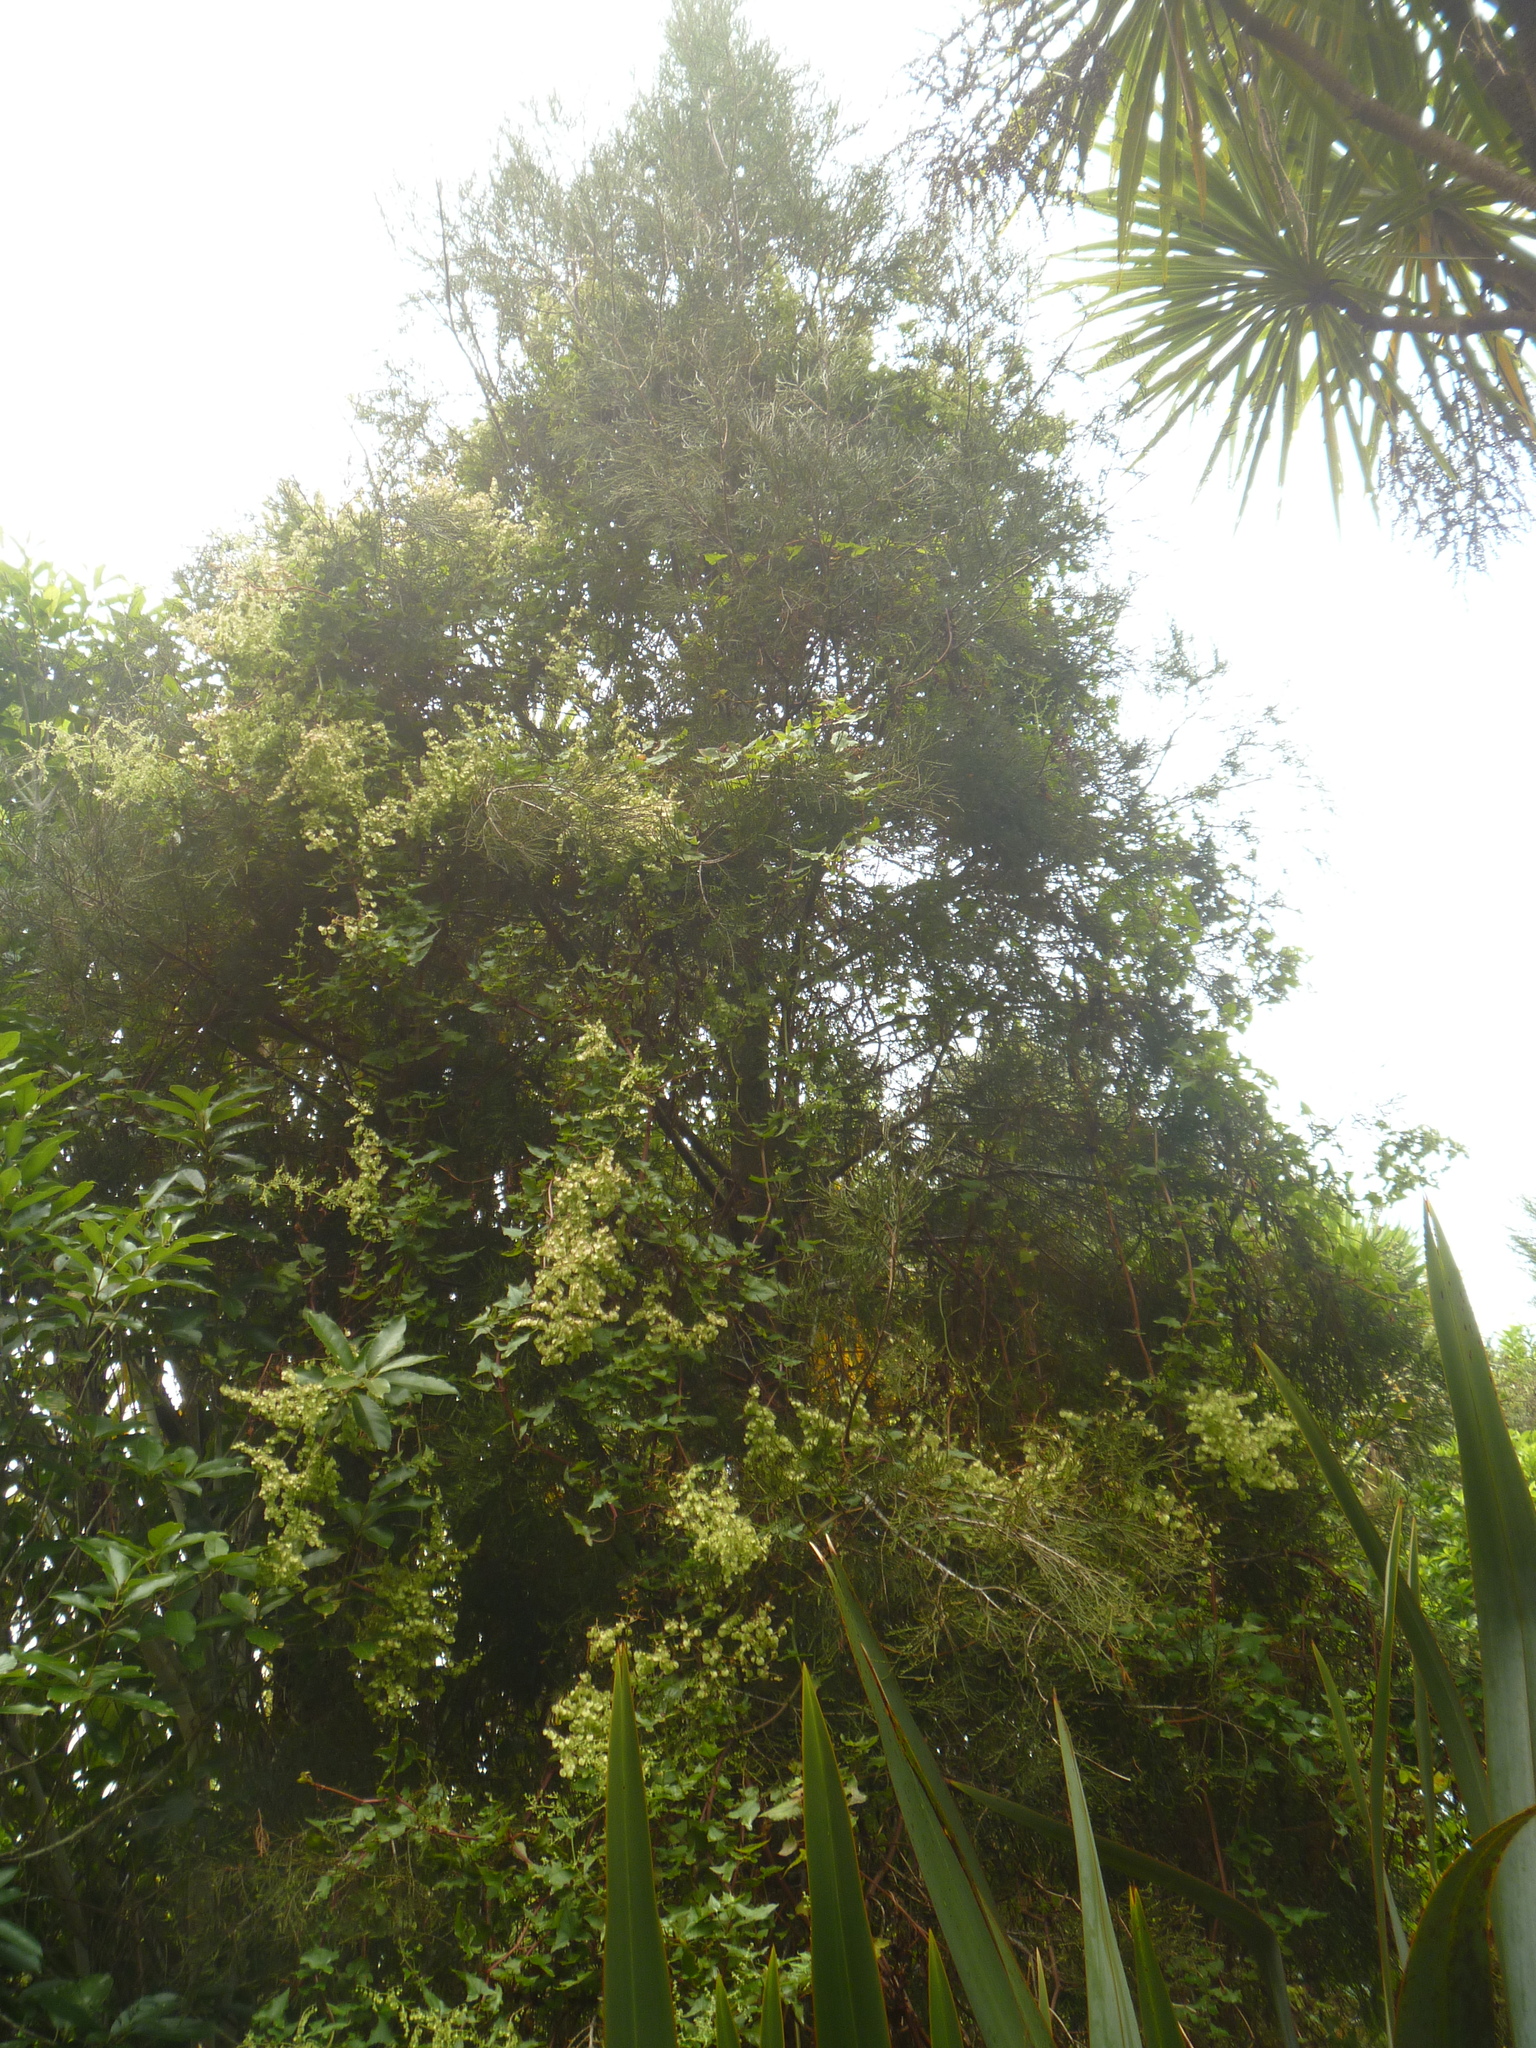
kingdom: Plantae
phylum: Tracheophyta
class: Pinopsida
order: Pinales
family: Podocarpaceae
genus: Dacrycarpus
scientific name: Dacrycarpus dacrydioides
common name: White pine
